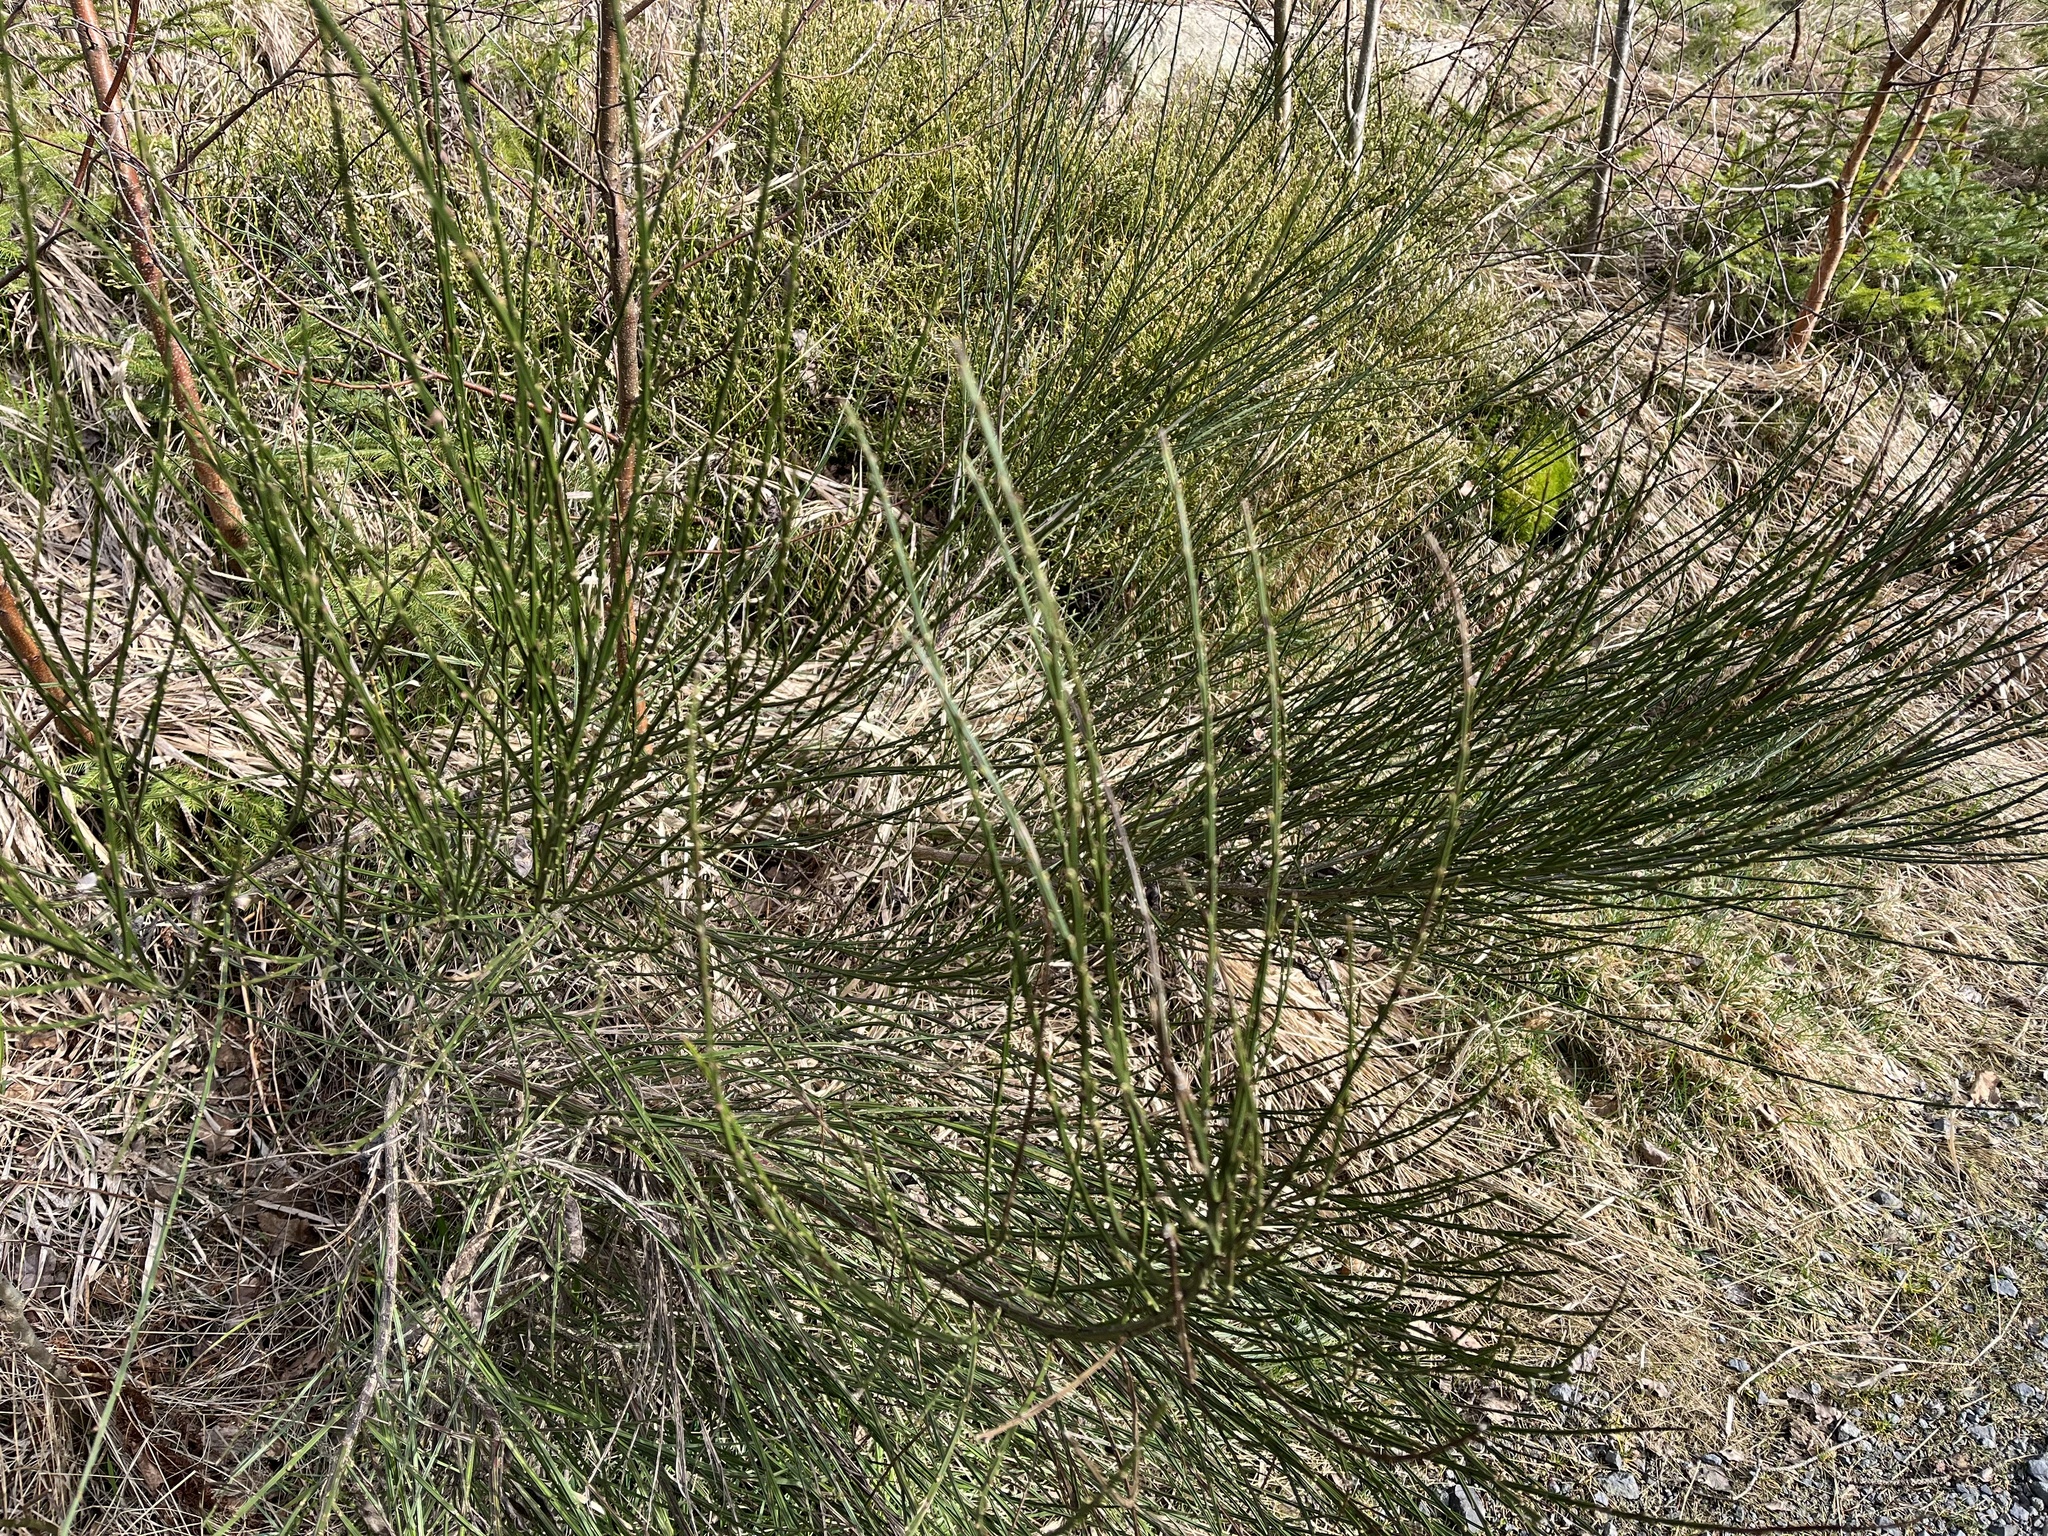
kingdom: Plantae
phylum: Tracheophyta
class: Magnoliopsida
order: Fabales
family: Fabaceae
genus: Cytisus
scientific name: Cytisus scoparius
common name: Scotch broom
